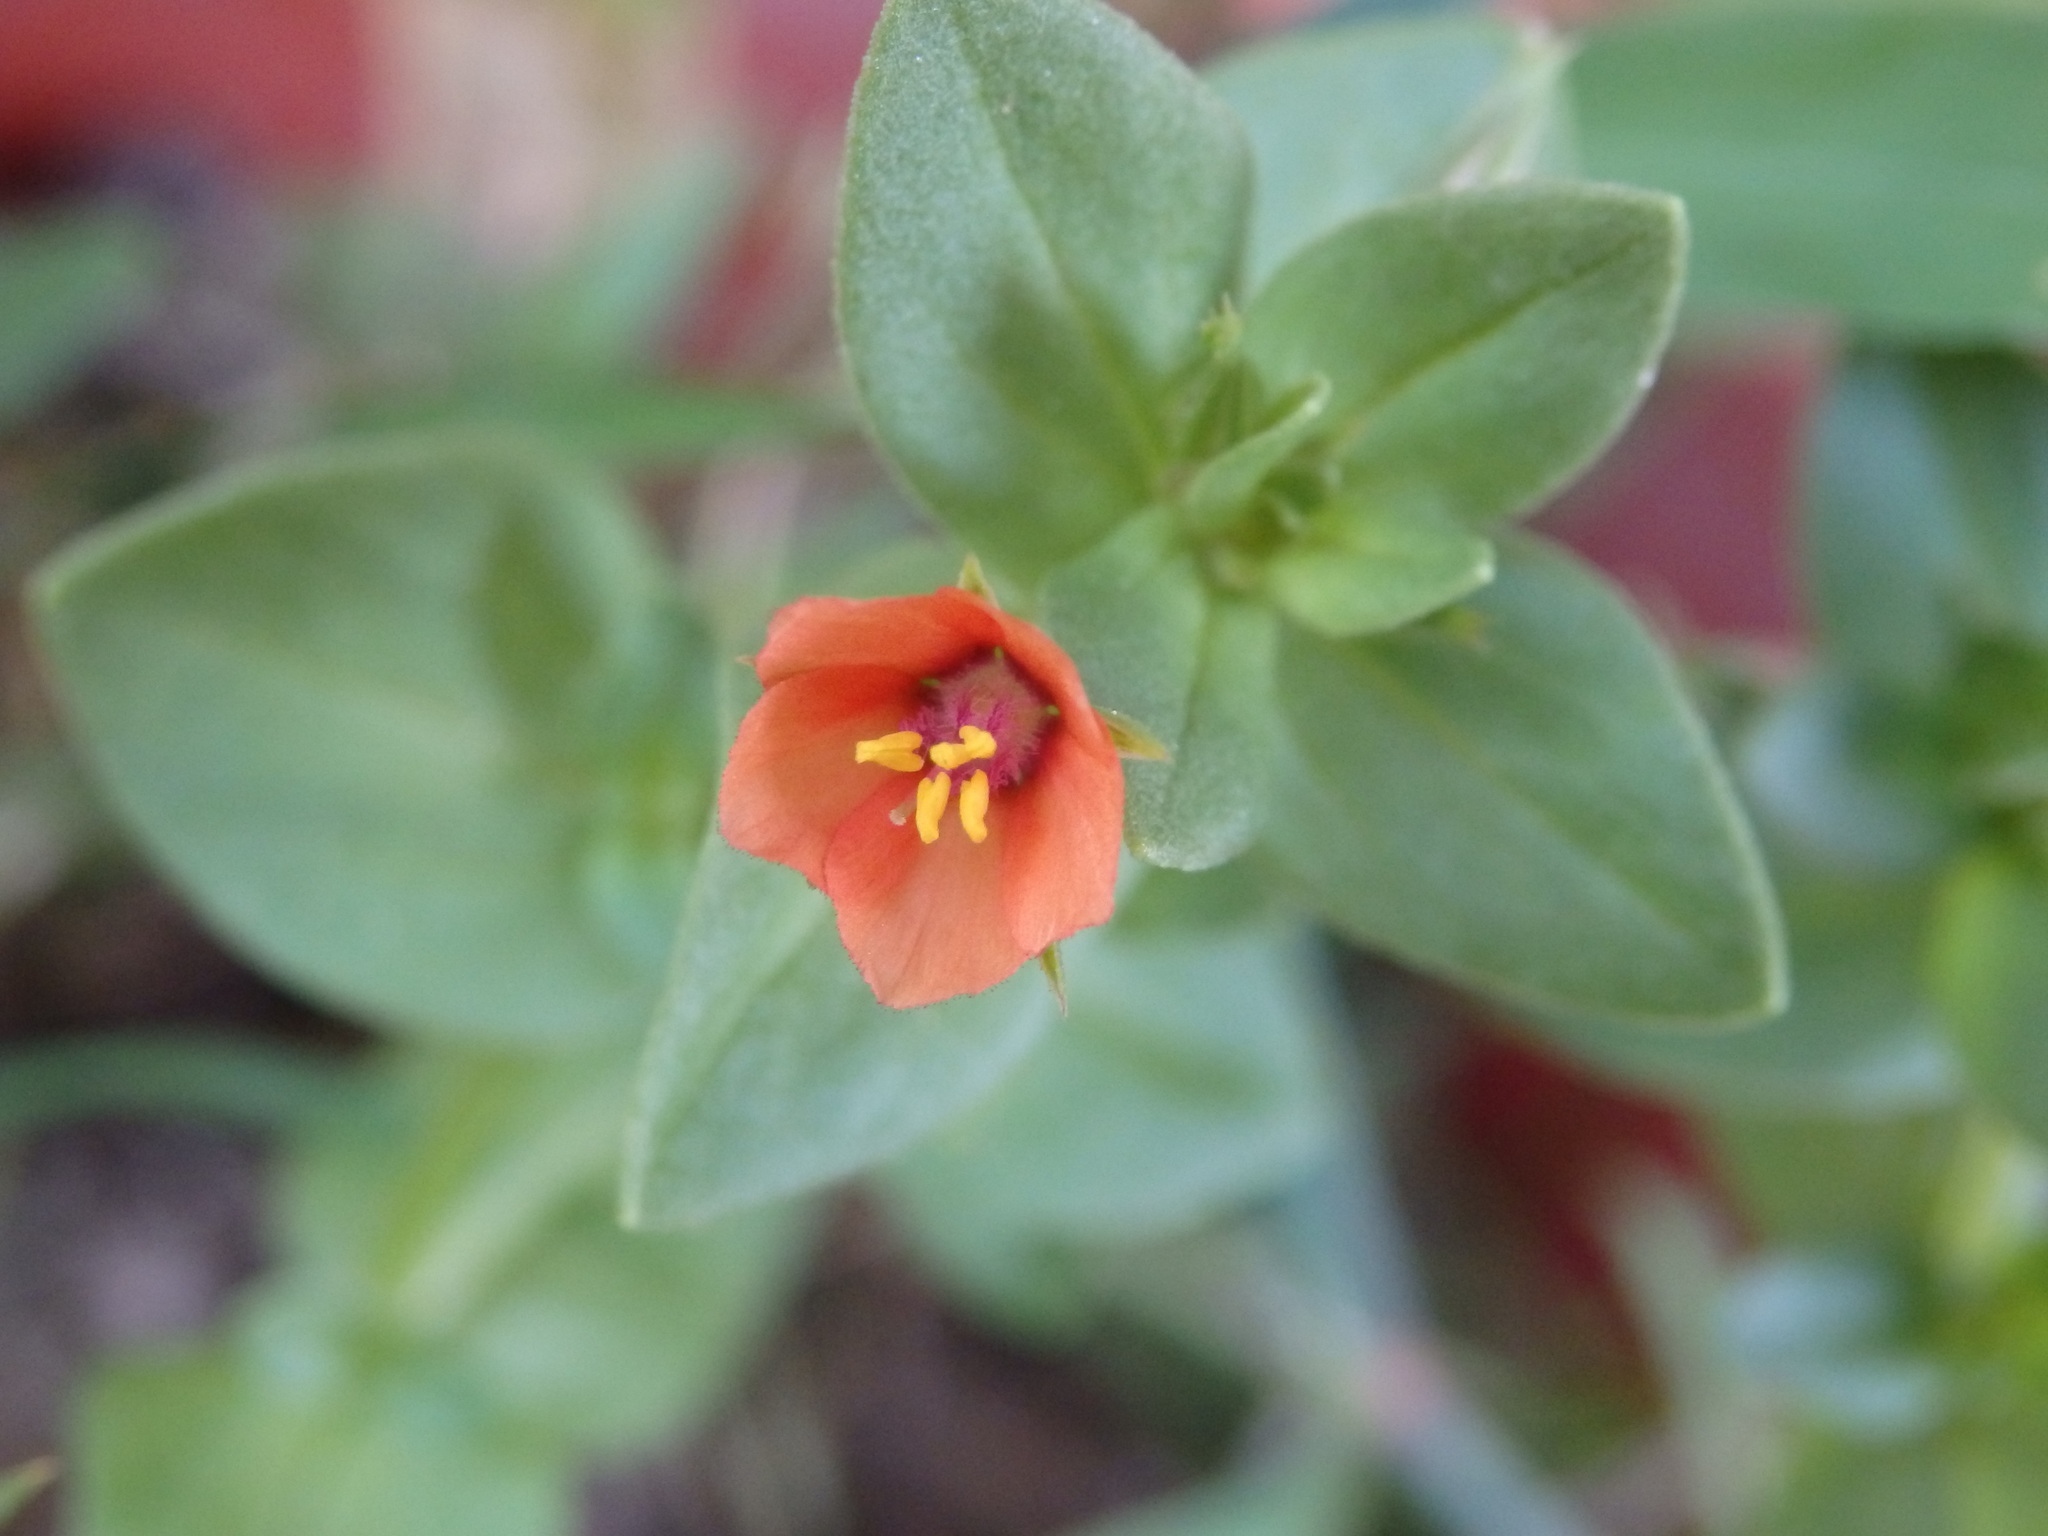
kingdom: Plantae
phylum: Tracheophyta
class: Magnoliopsida
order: Ericales
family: Primulaceae
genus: Lysimachia
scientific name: Lysimachia arvensis
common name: Scarlet pimpernel
